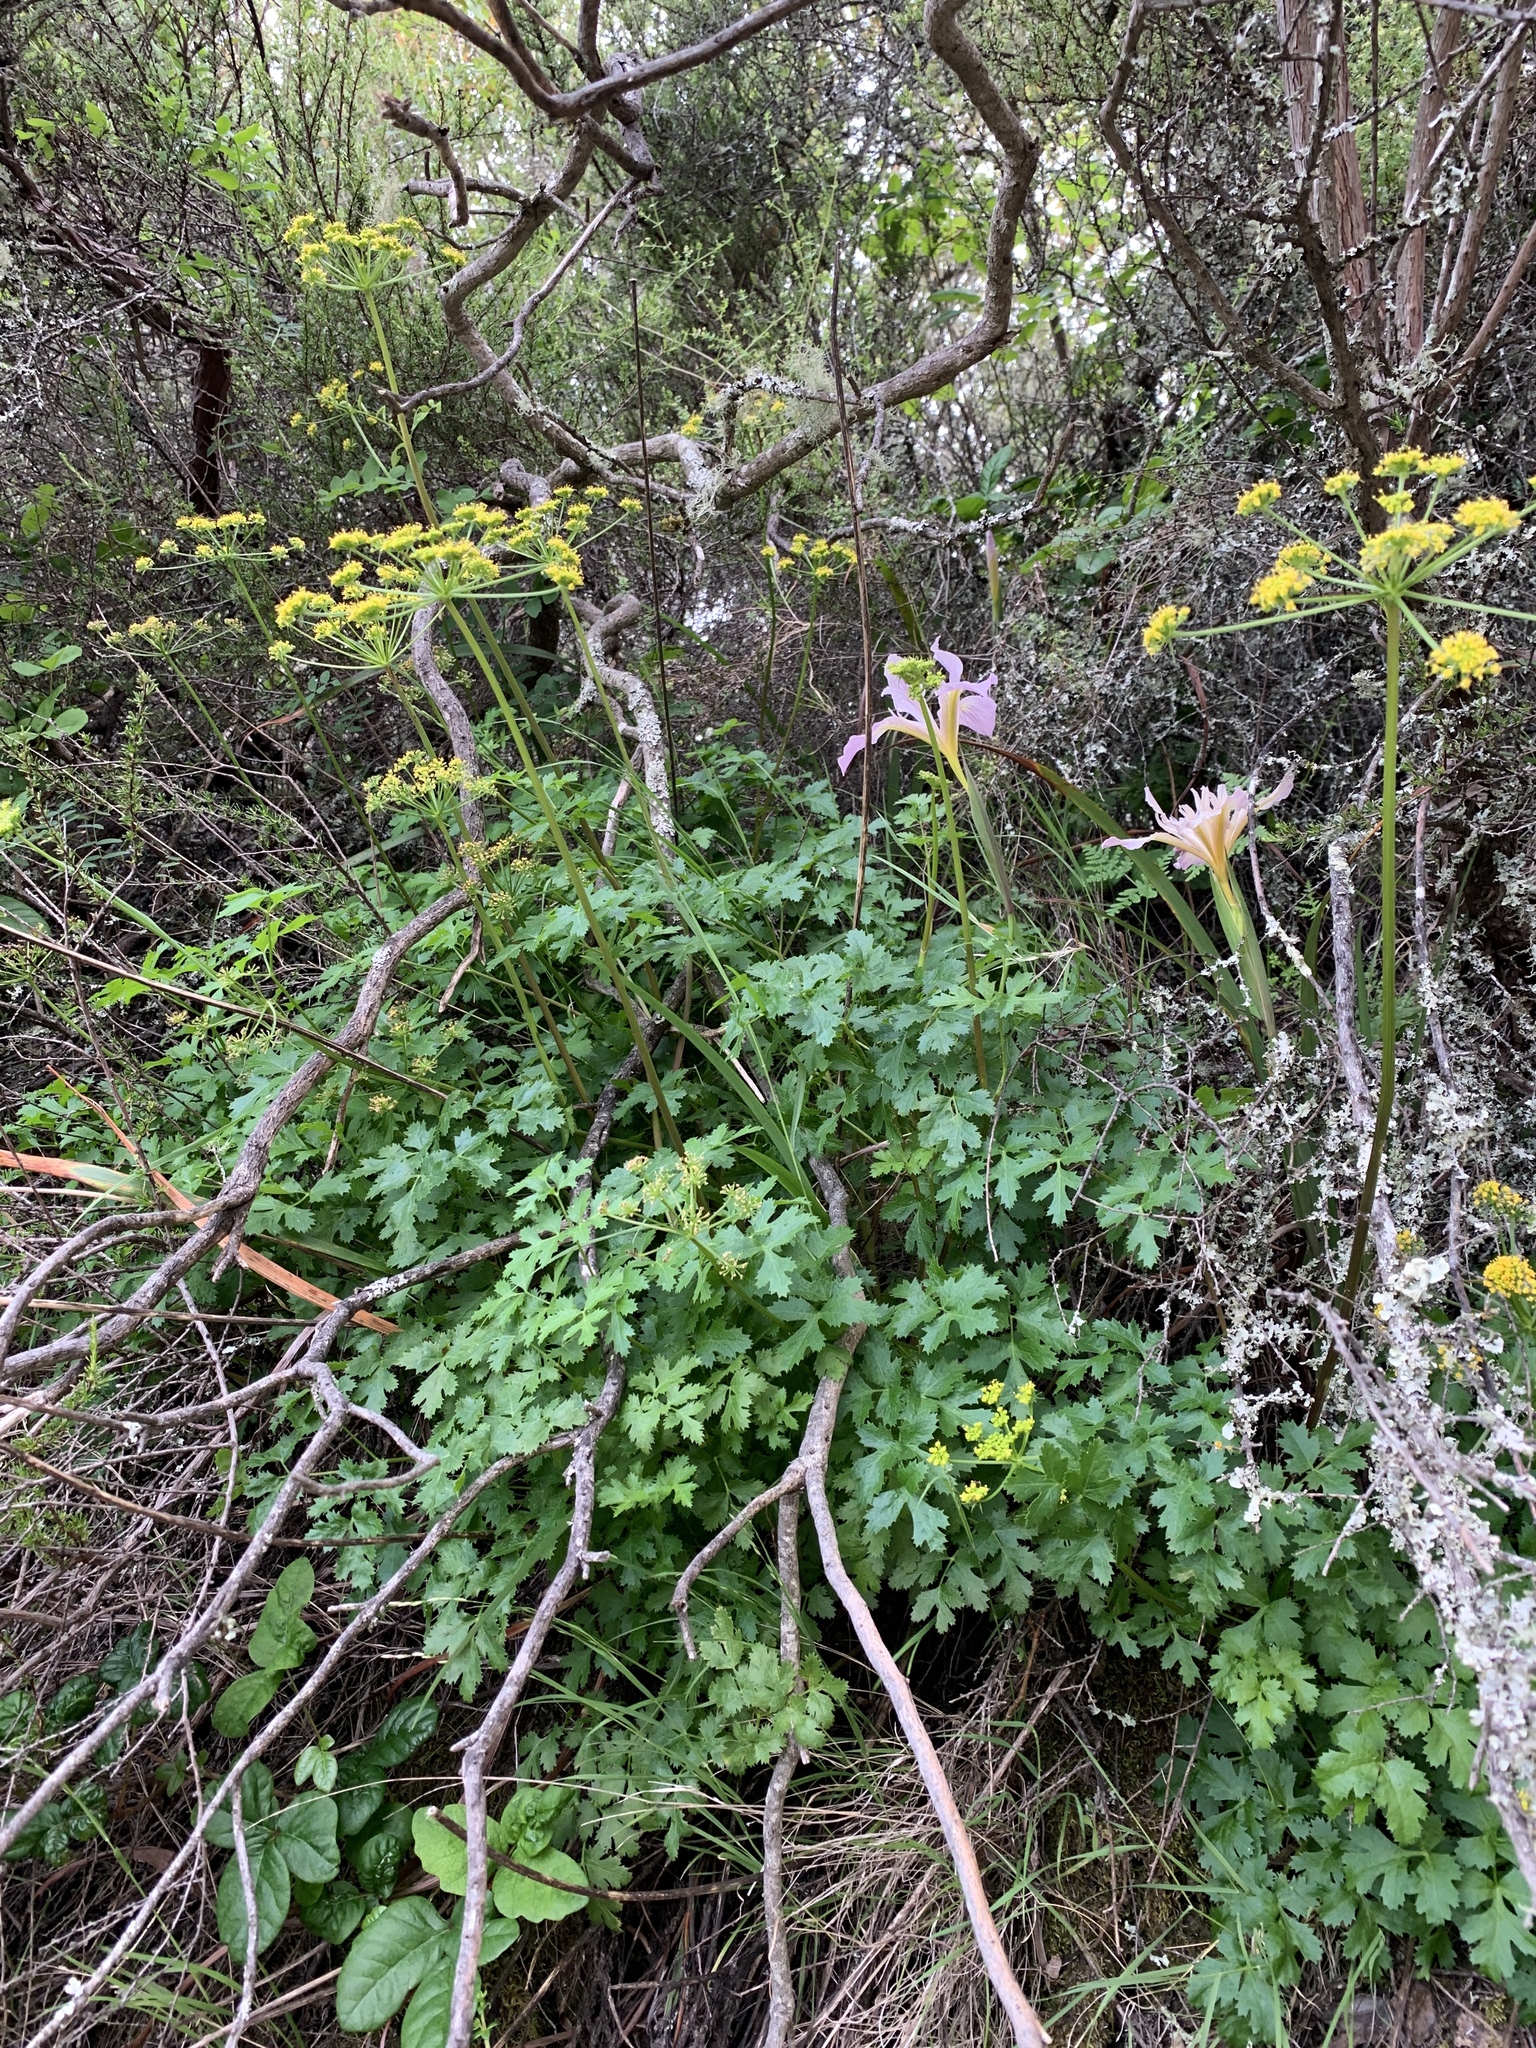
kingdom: Plantae
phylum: Tracheophyta
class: Magnoliopsida
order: Apiales
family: Apiaceae
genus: Tauschia
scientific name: Tauschia kelloggii
